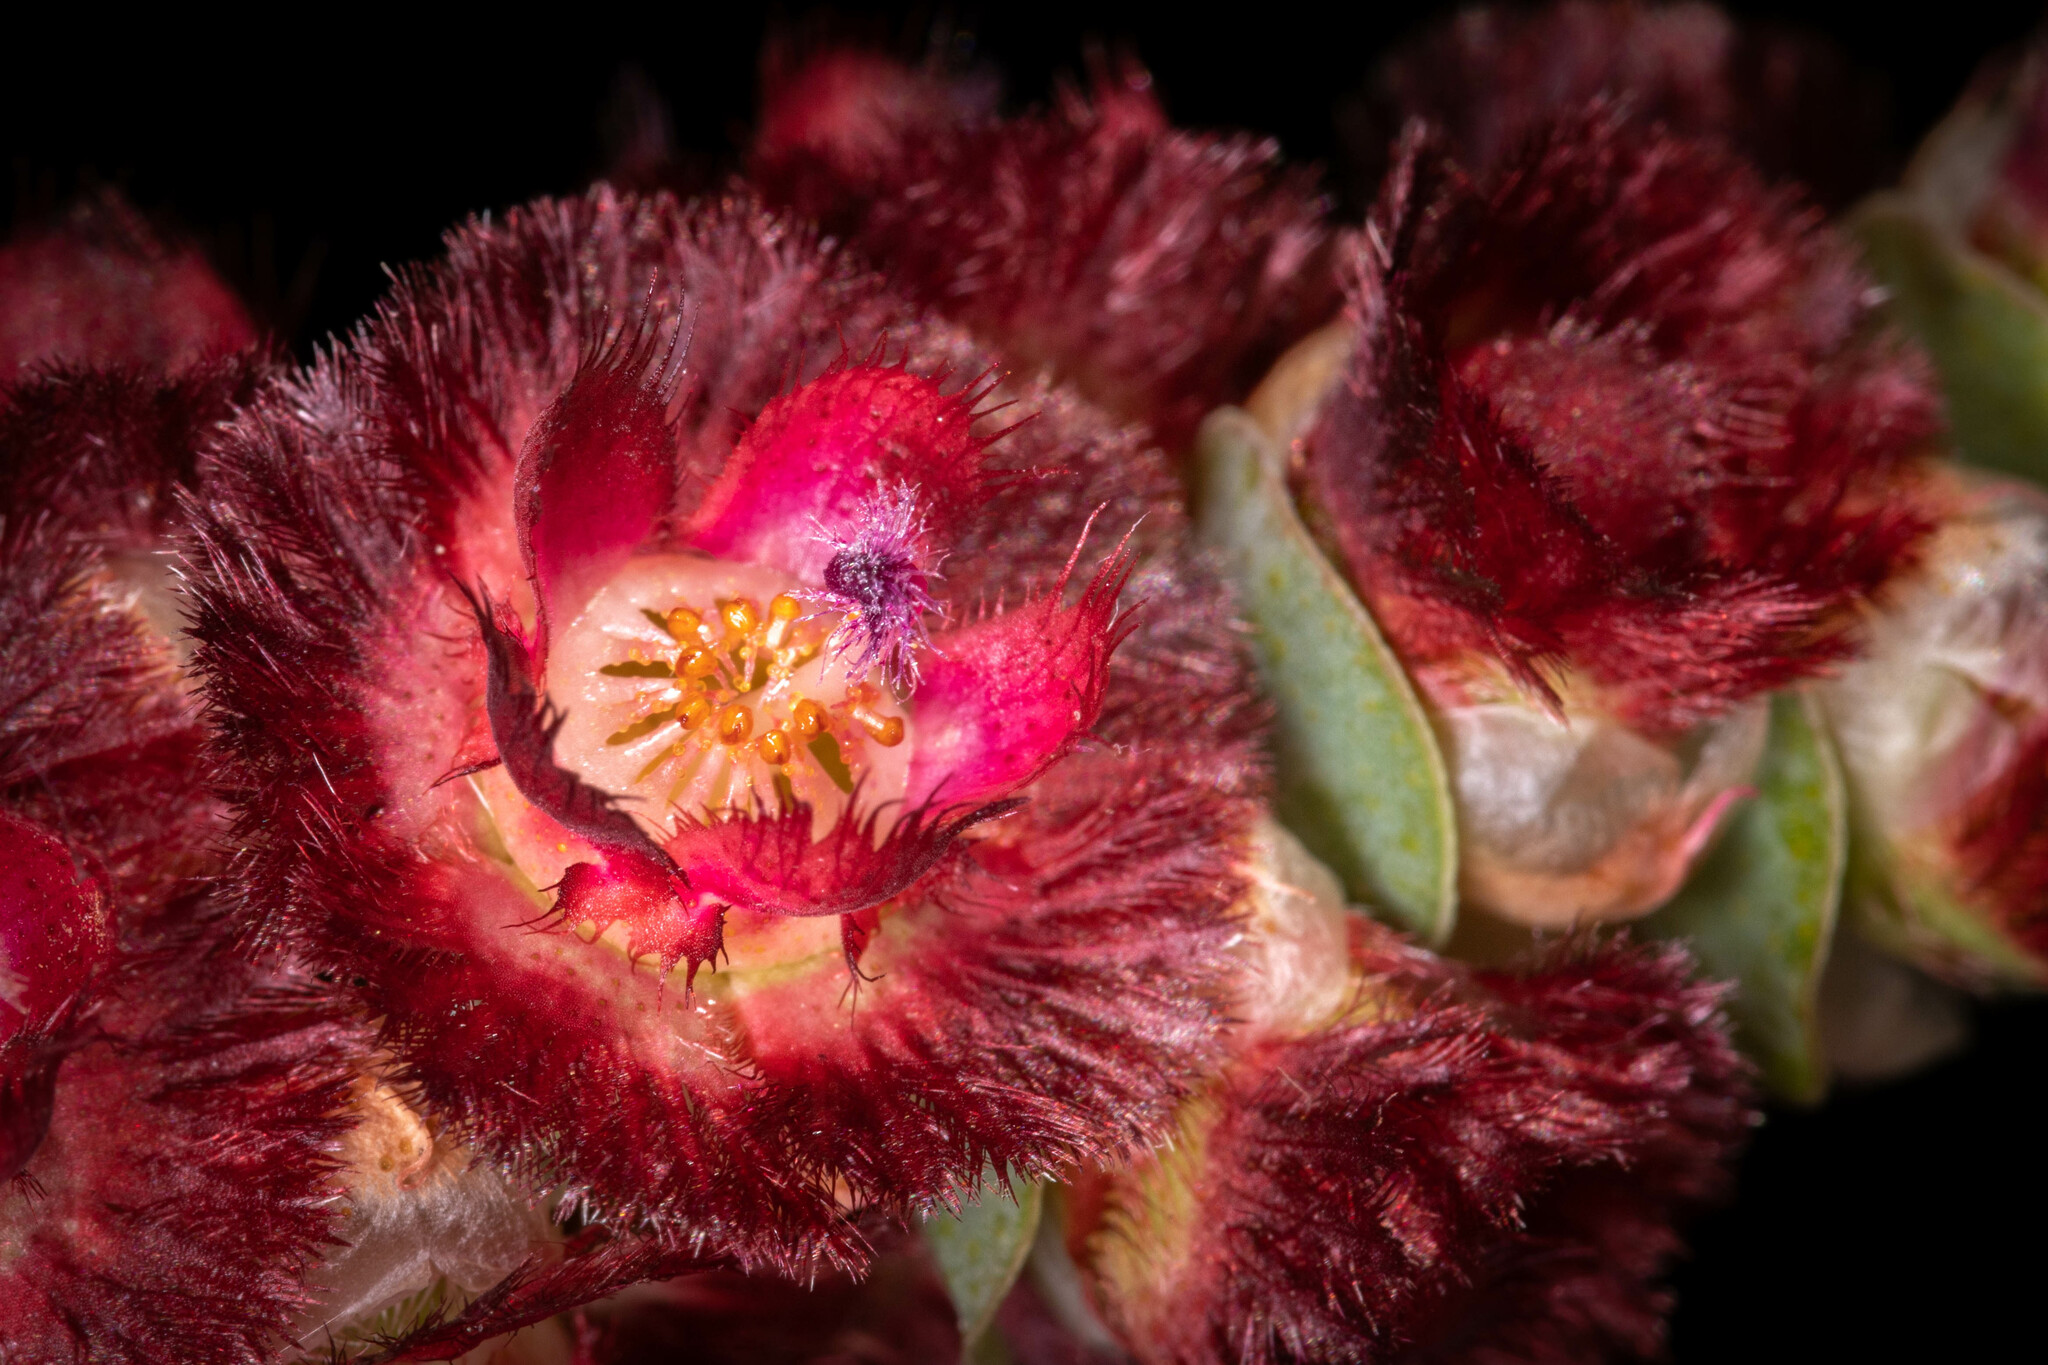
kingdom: Plantae
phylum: Tracheophyta
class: Magnoliopsida
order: Myrtales
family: Myrtaceae
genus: Verticordia
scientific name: Verticordia muelleriana
